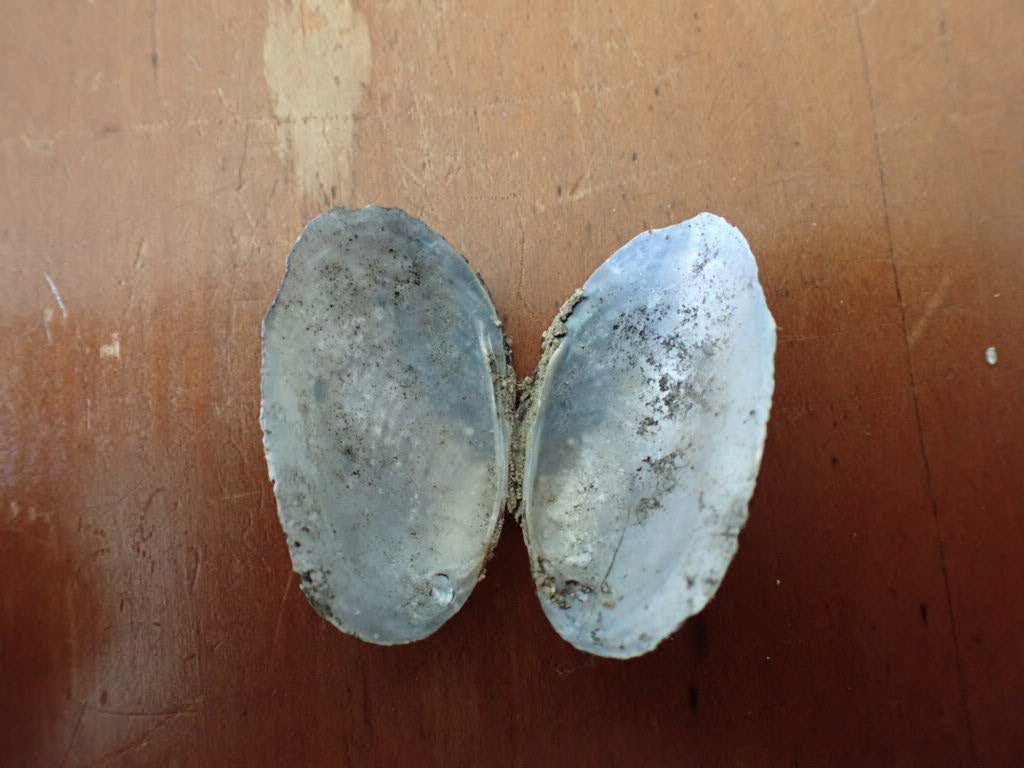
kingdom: Animalia
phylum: Mollusca
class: Bivalvia
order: Unionida
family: Hyriidae
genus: Echyridella
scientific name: Echyridella menziesii
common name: New zealand freshwater mussel
